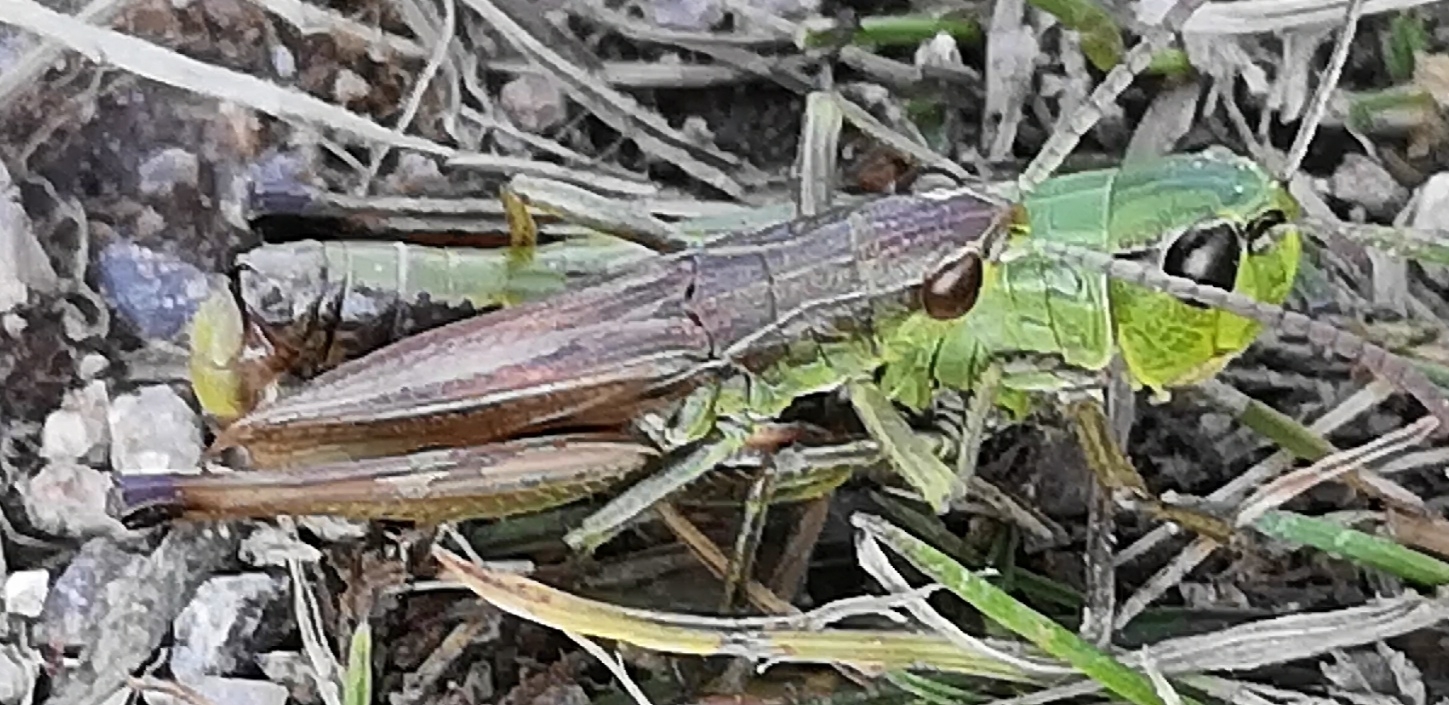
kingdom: Animalia
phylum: Arthropoda
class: Insecta
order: Orthoptera
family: Acrididae
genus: Pseudochorthippus
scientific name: Pseudochorthippus parallelus
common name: Meadow grasshopper
